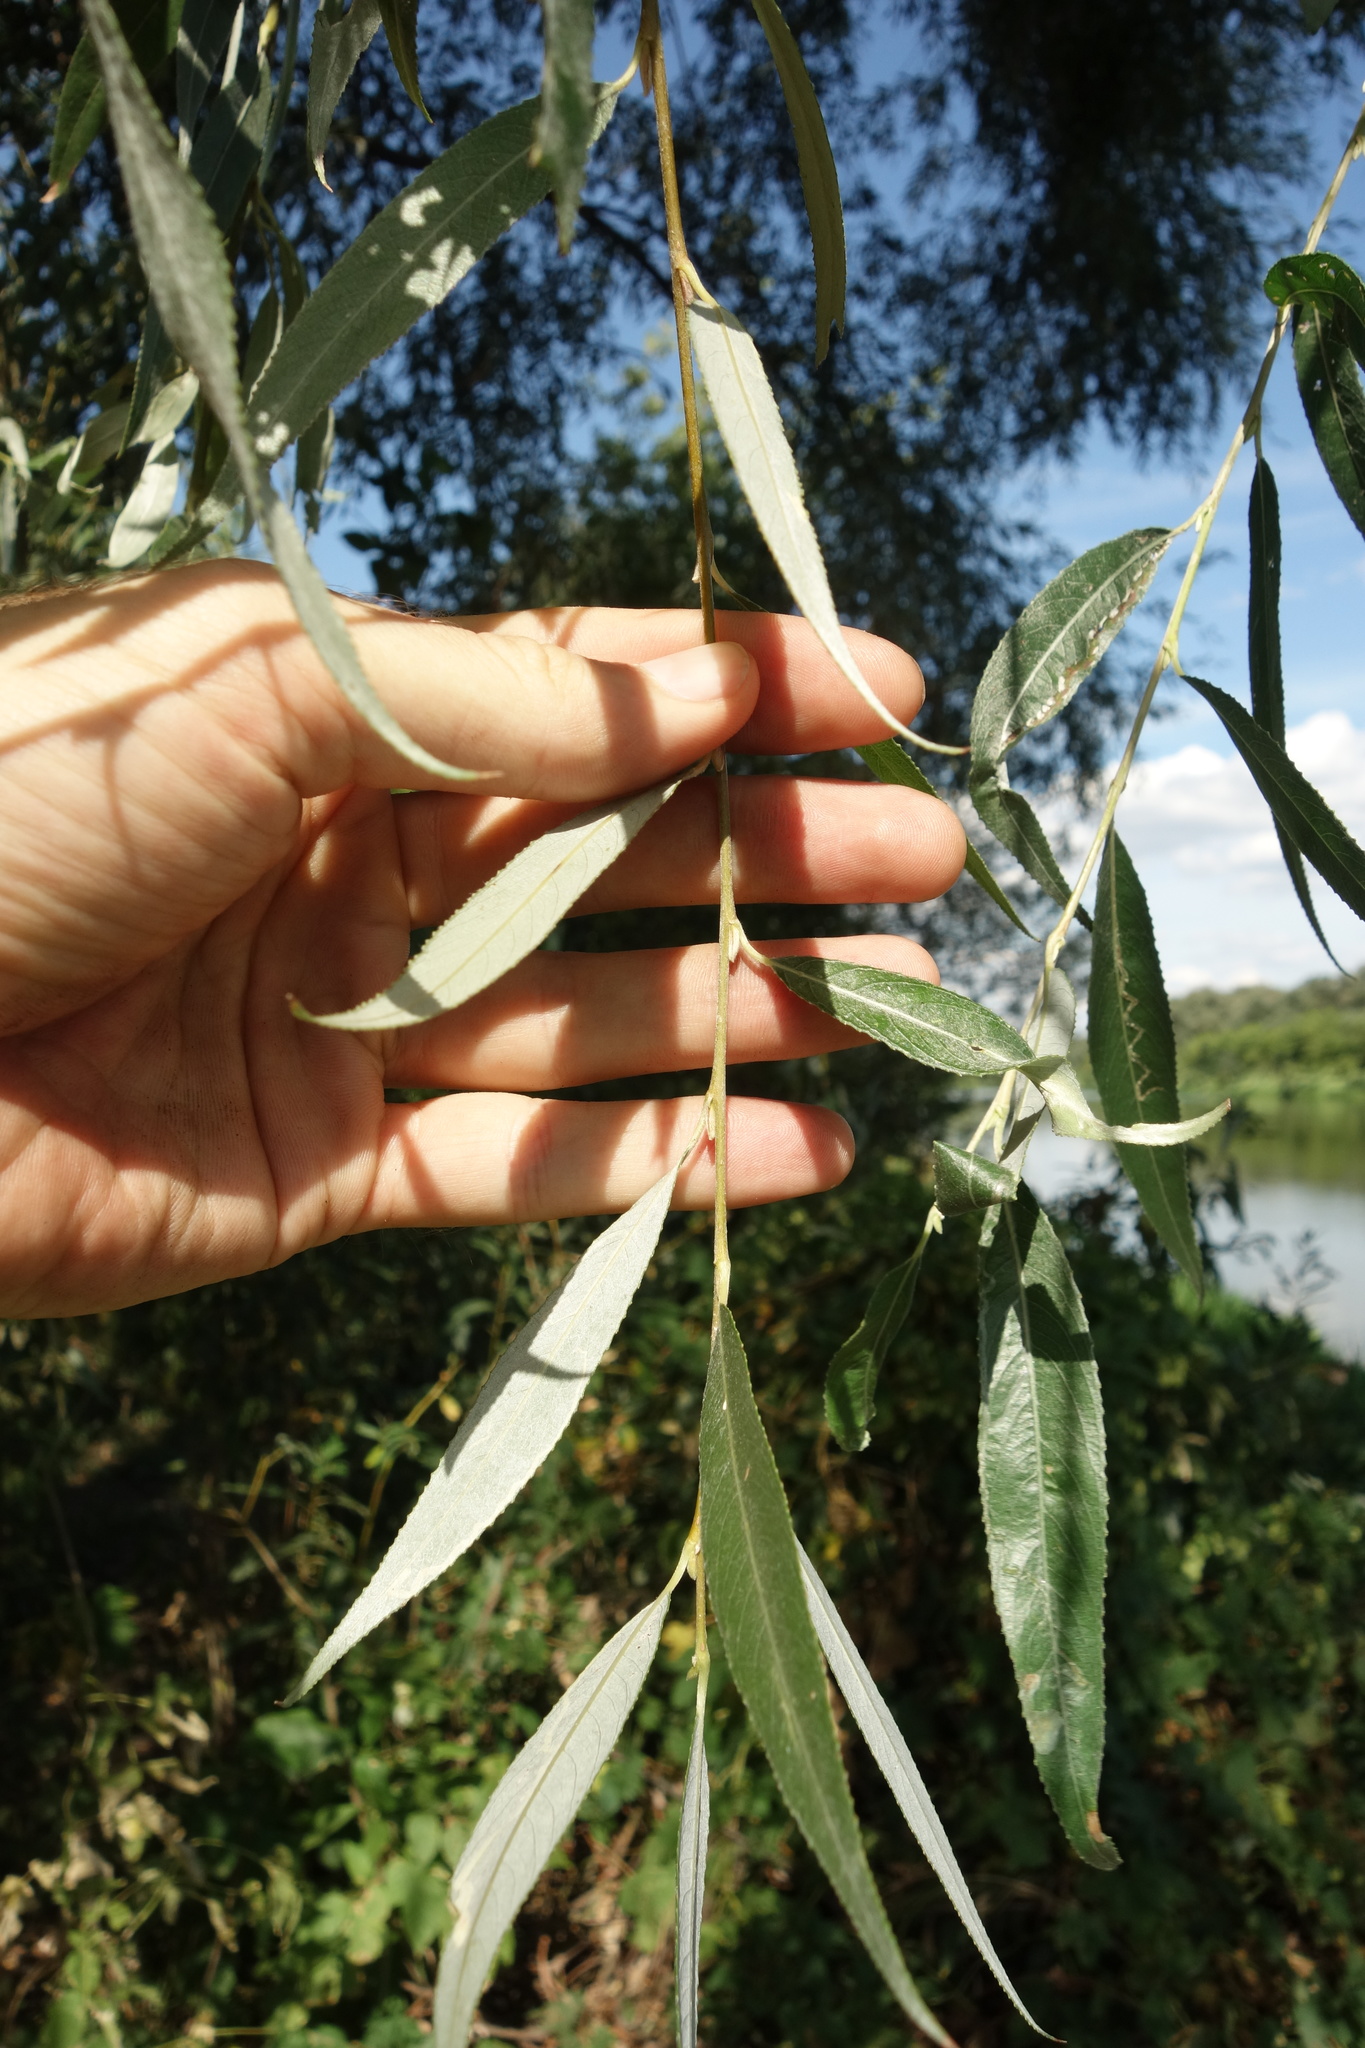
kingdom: Plantae
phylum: Tracheophyta
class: Magnoliopsida
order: Malpighiales
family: Salicaceae
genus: Salix
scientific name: Salix alba
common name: White willow
